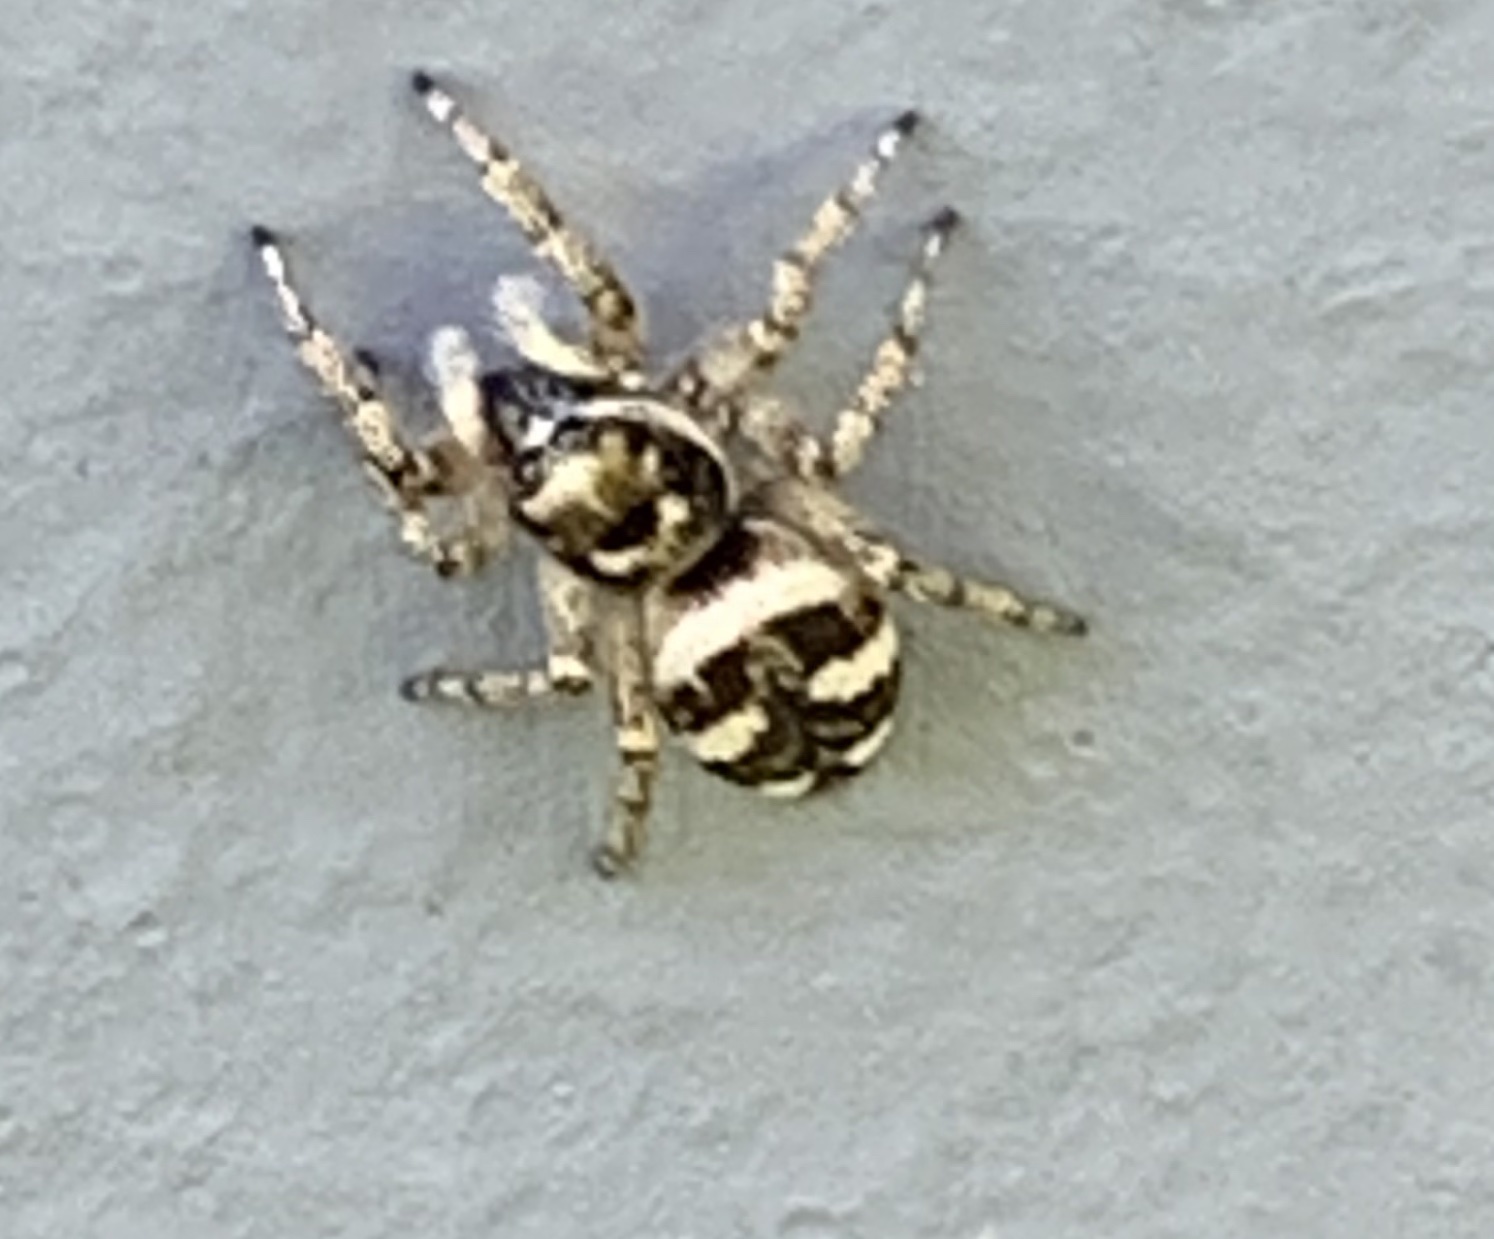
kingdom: Animalia
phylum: Arthropoda
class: Arachnida
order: Araneae
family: Salticidae
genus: Salticus
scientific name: Salticus scenicus
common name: Zebra jumper
